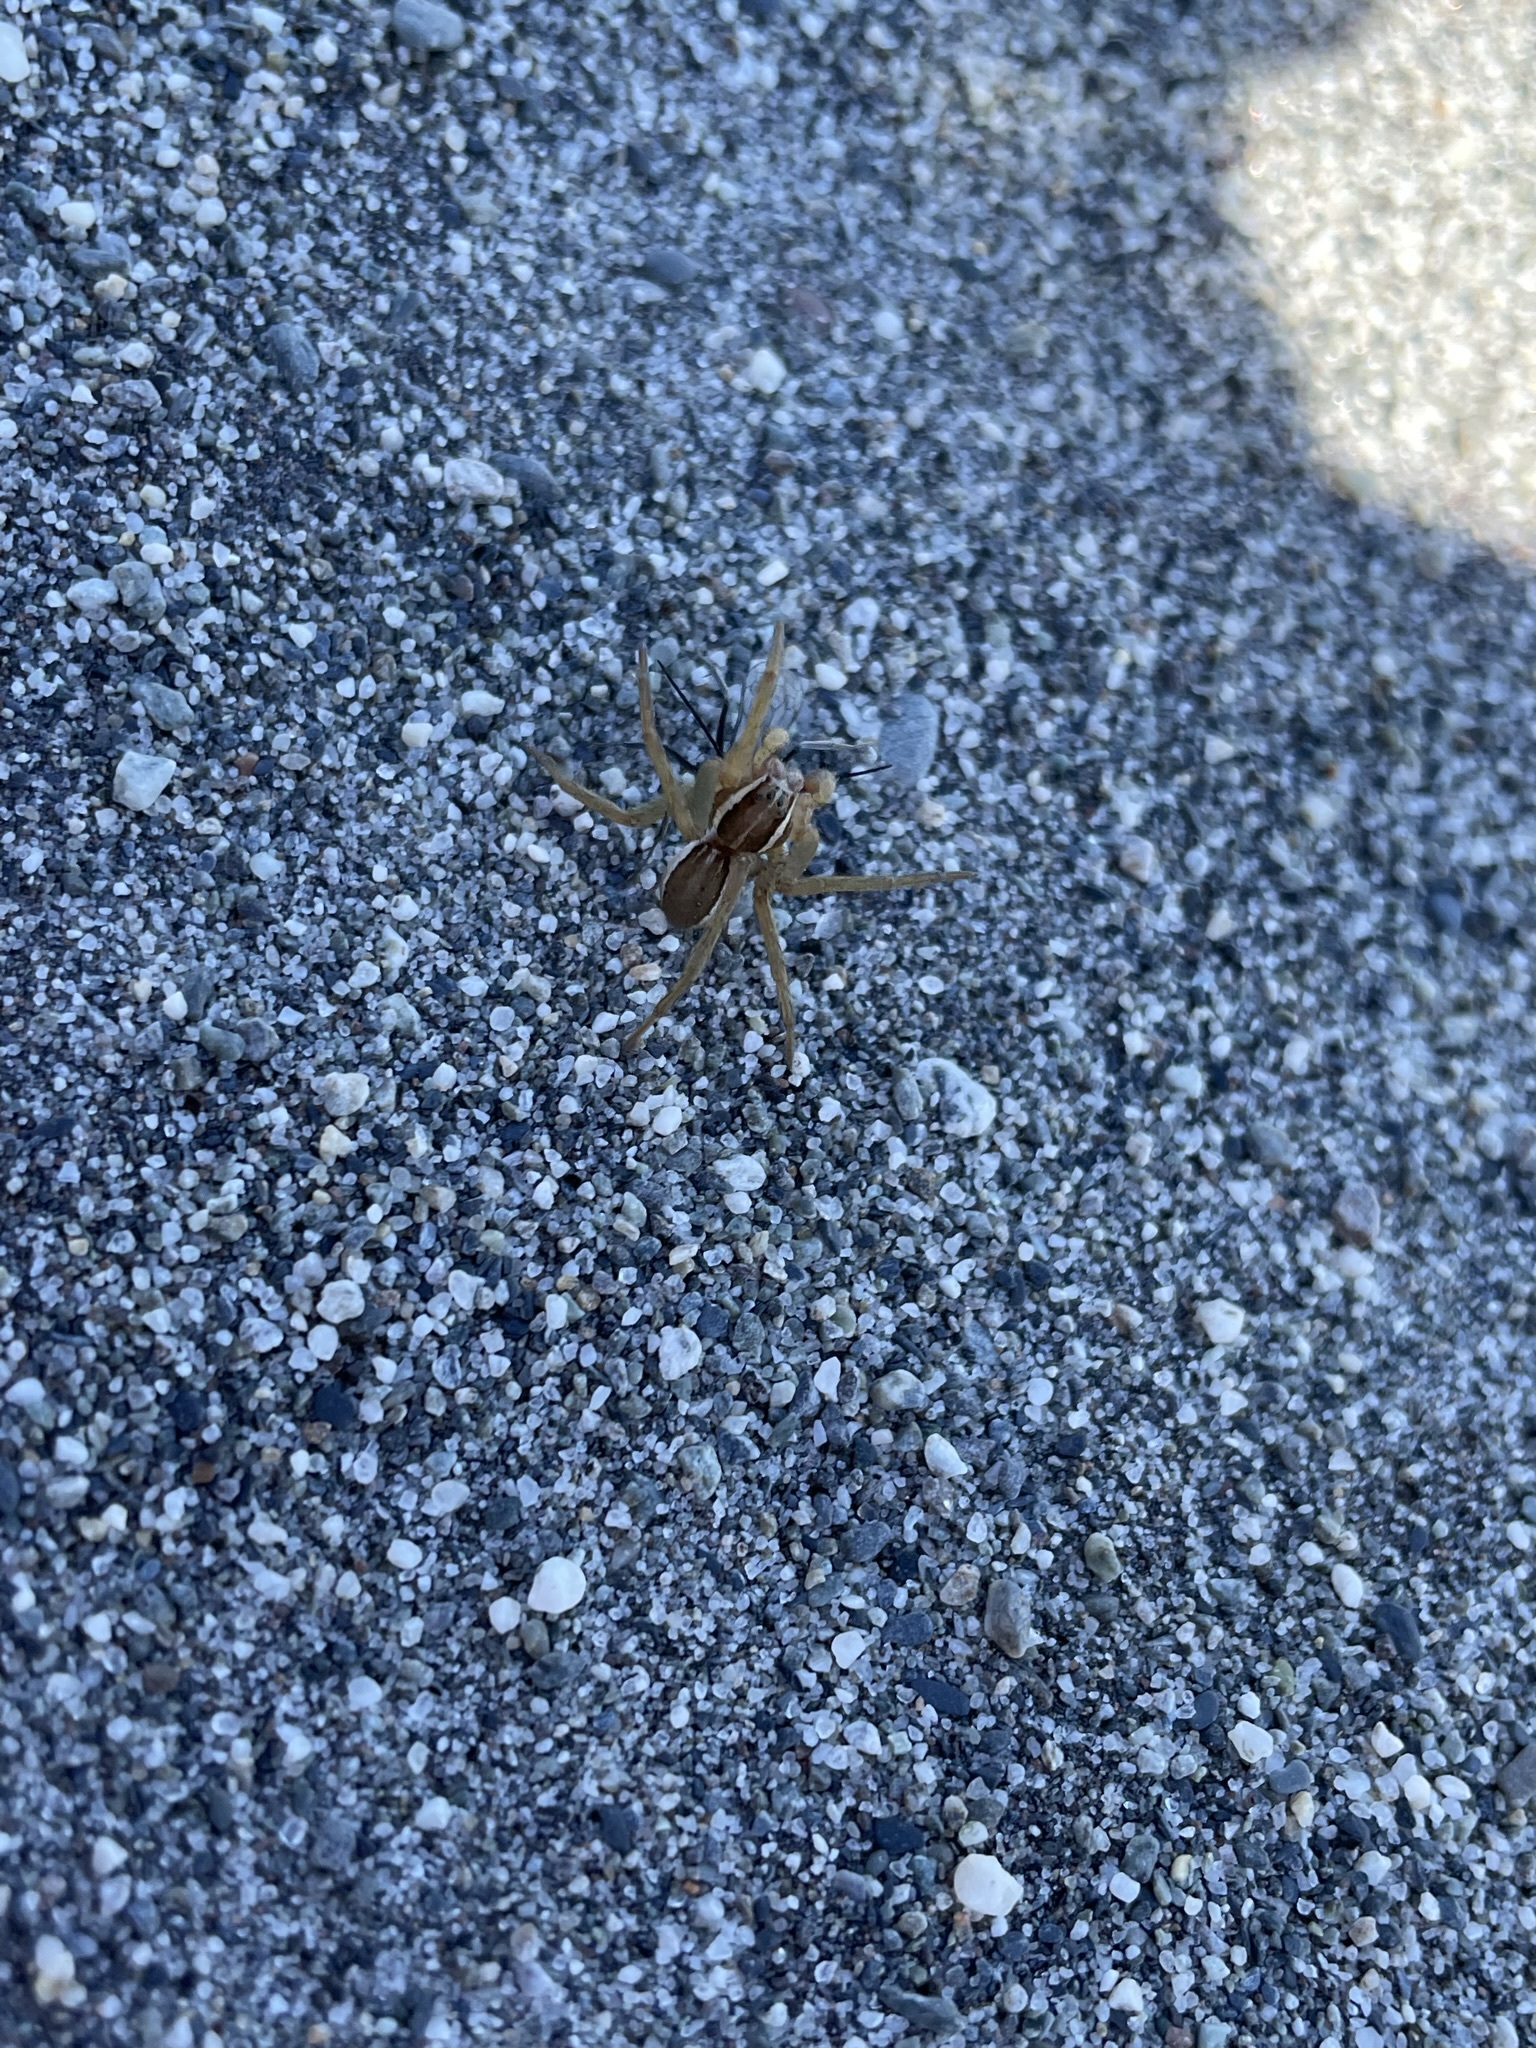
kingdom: Animalia
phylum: Arthropoda
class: Arachnida
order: Araneae
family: Pisauridae
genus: Dolomedes
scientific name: Dolomedes minor
